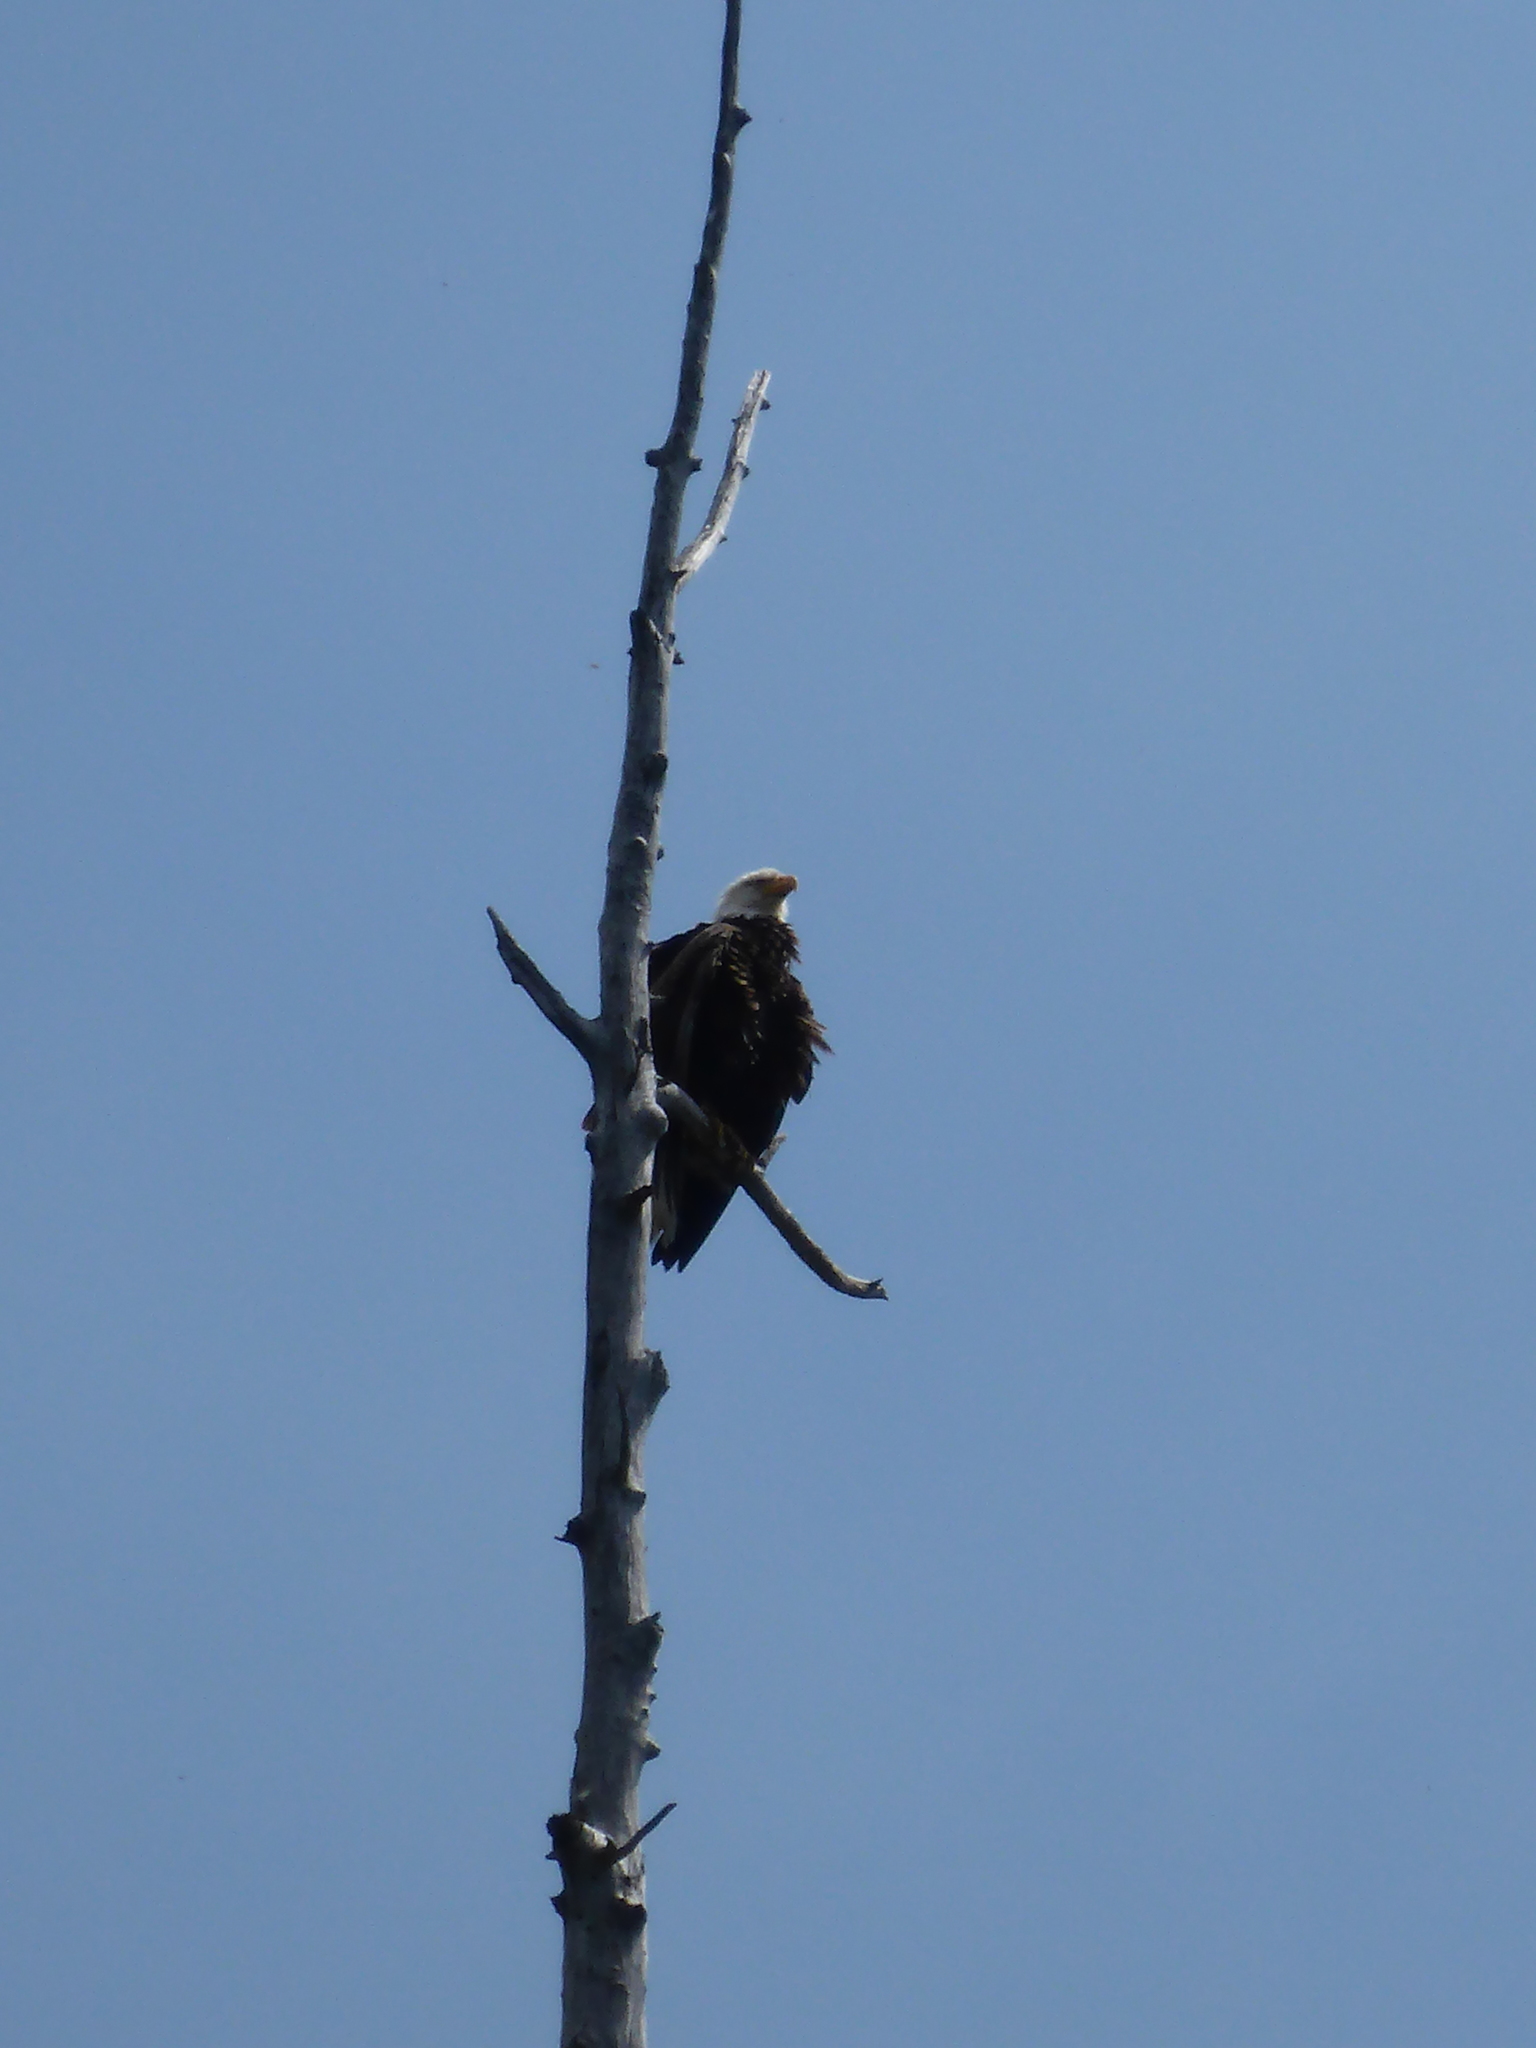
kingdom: Animalia
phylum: Chordata
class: Aves
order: Accipitriformes
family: Accipitridae
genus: Haliaeetus
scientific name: Haliaeetus leucocephalus
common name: Bald eagle
